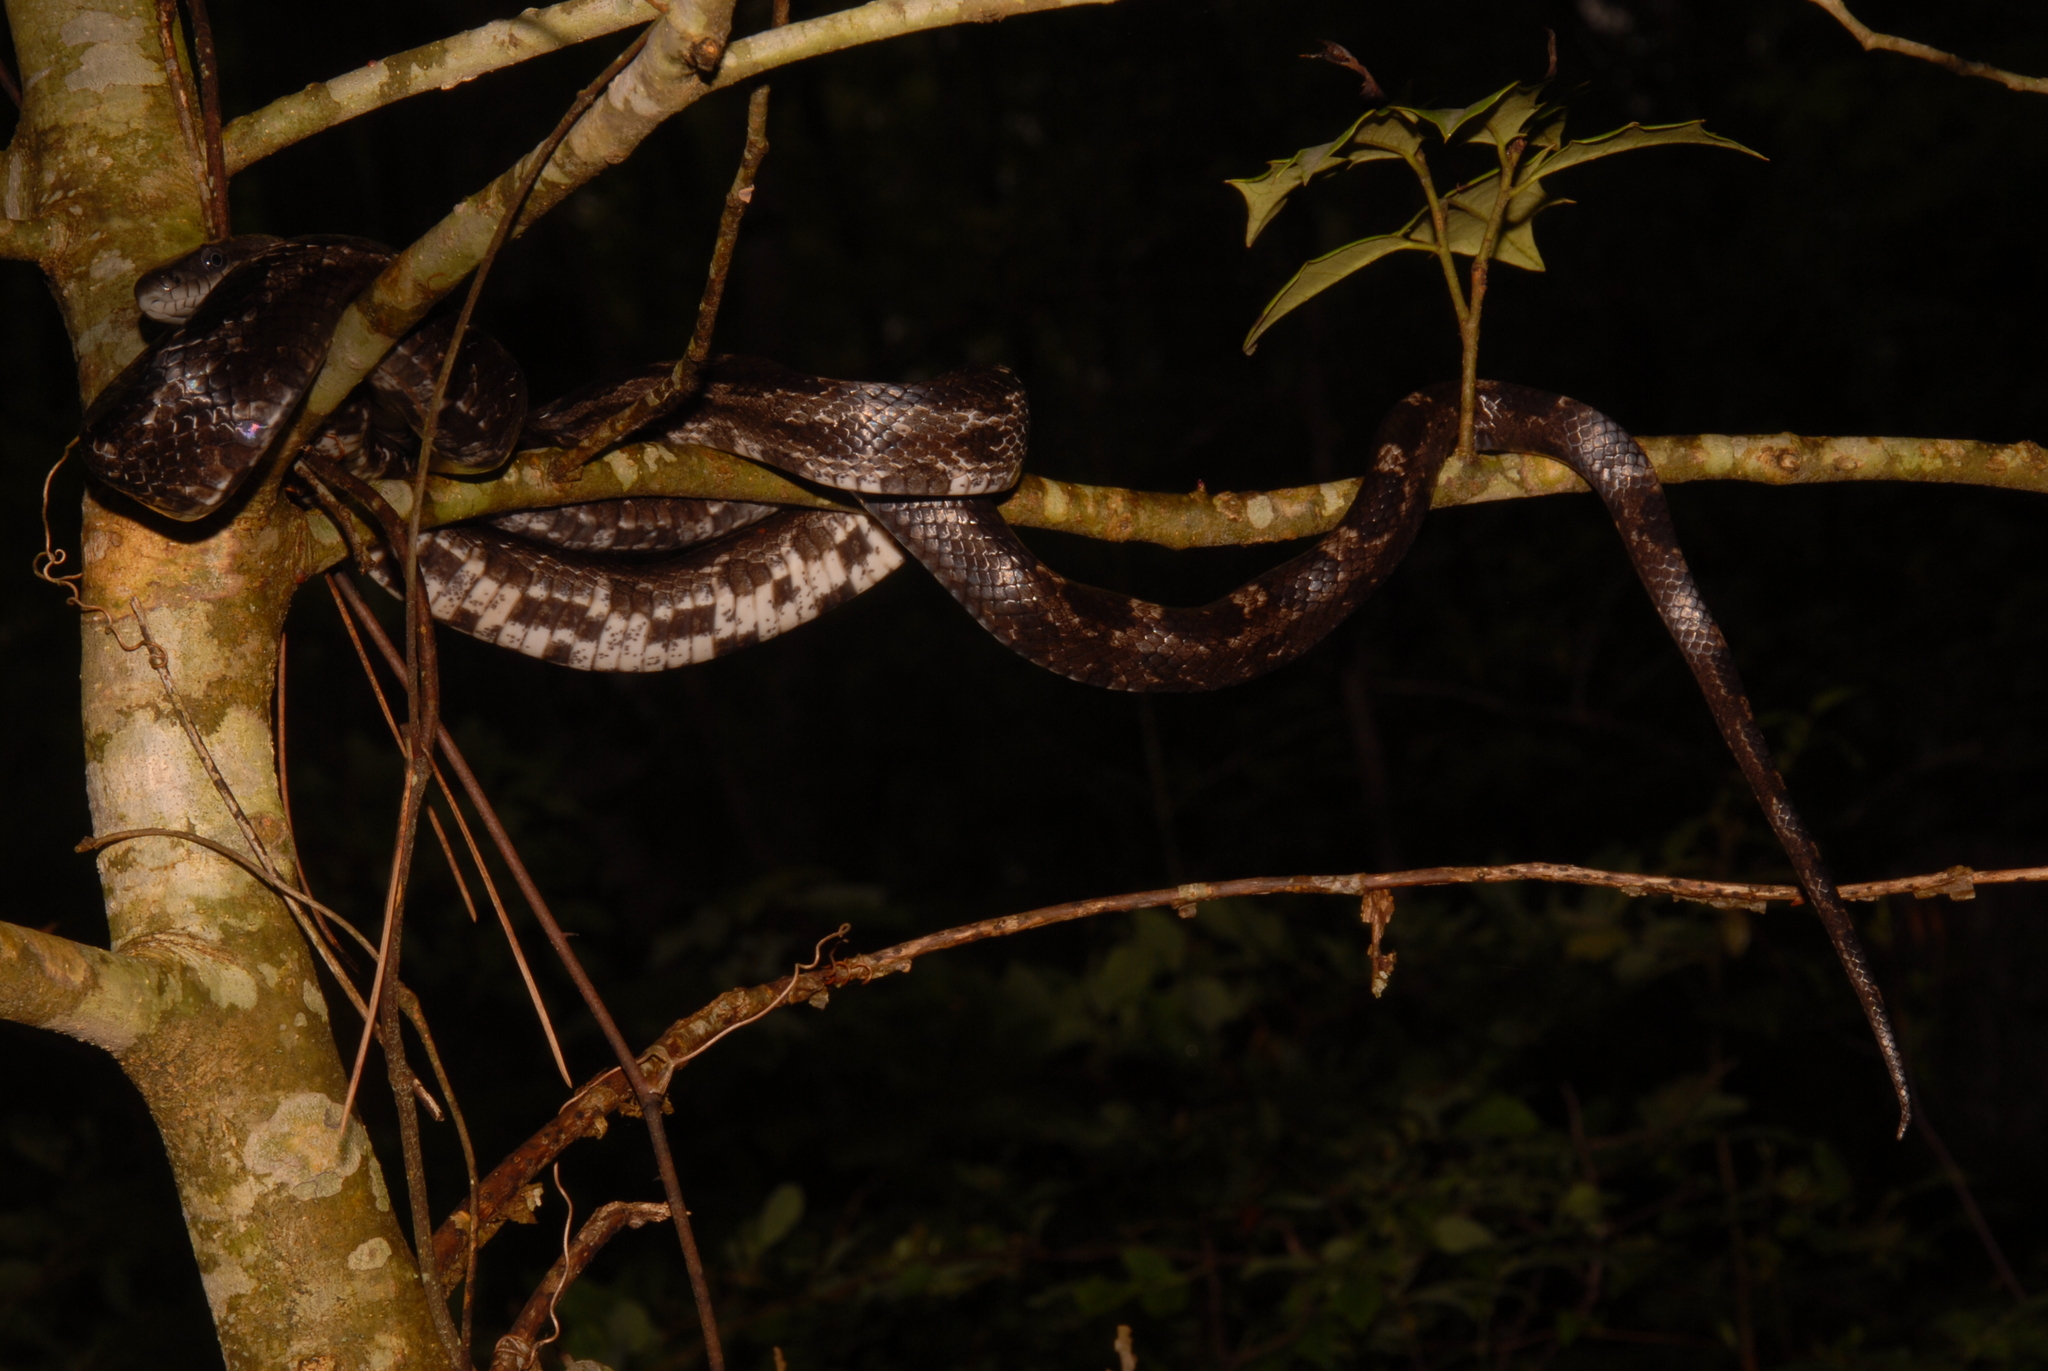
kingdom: Animalia
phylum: Chordata
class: Squamata
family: Colubridae
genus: Pantherophis
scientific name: Pantherophis spiloides
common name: Gray rat snake
